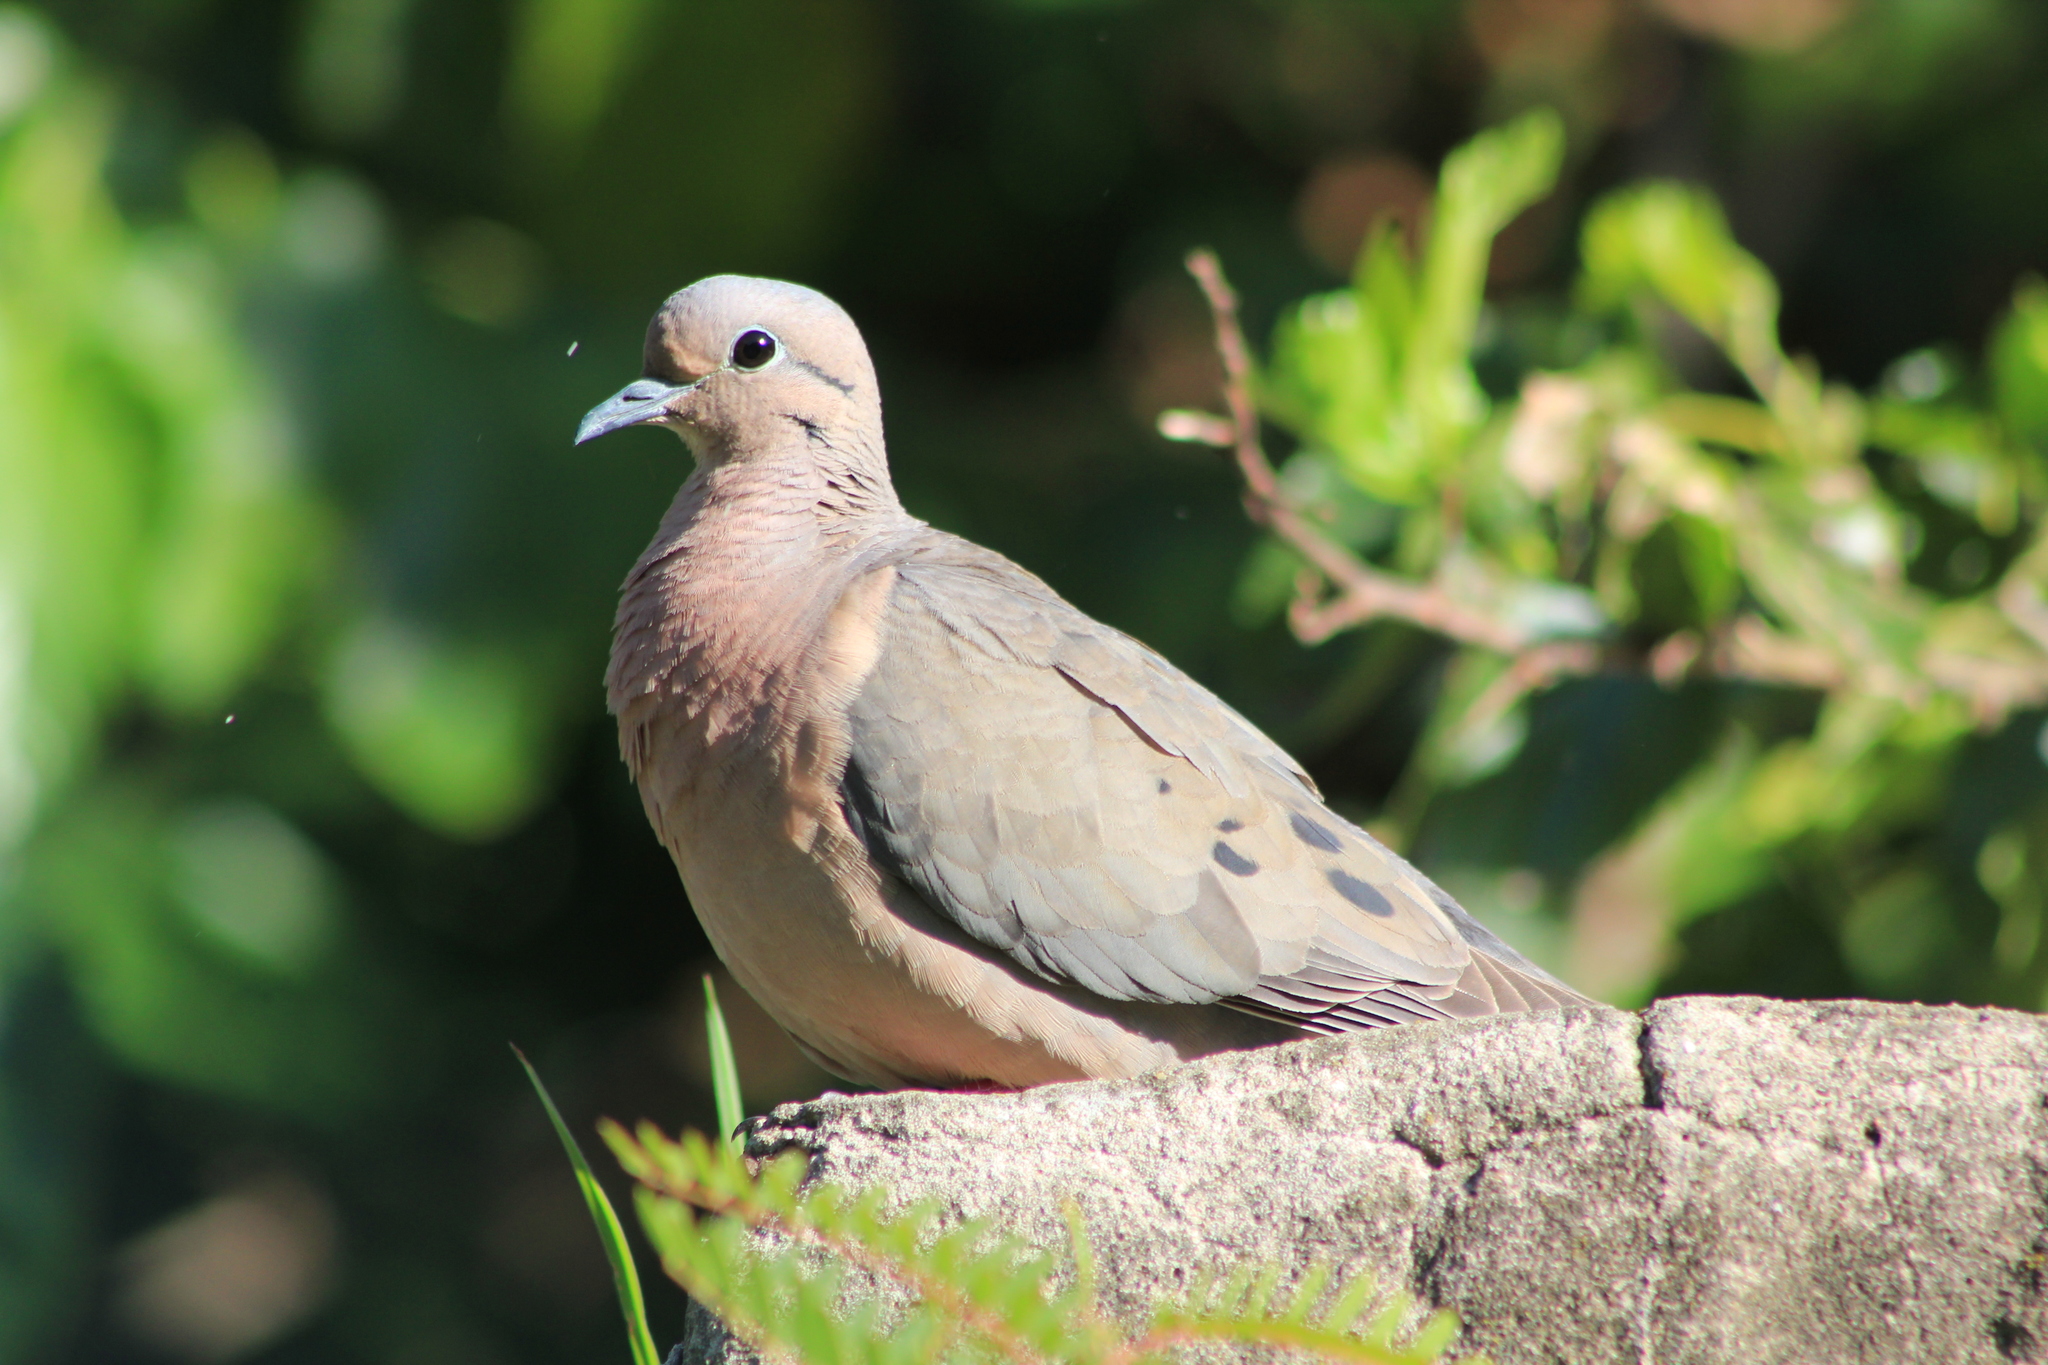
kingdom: Animalia
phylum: Chordata
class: Aves
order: Columbiformes
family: Columbidae
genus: Zenaida
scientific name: Zenaida auriculata
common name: Eared dove
